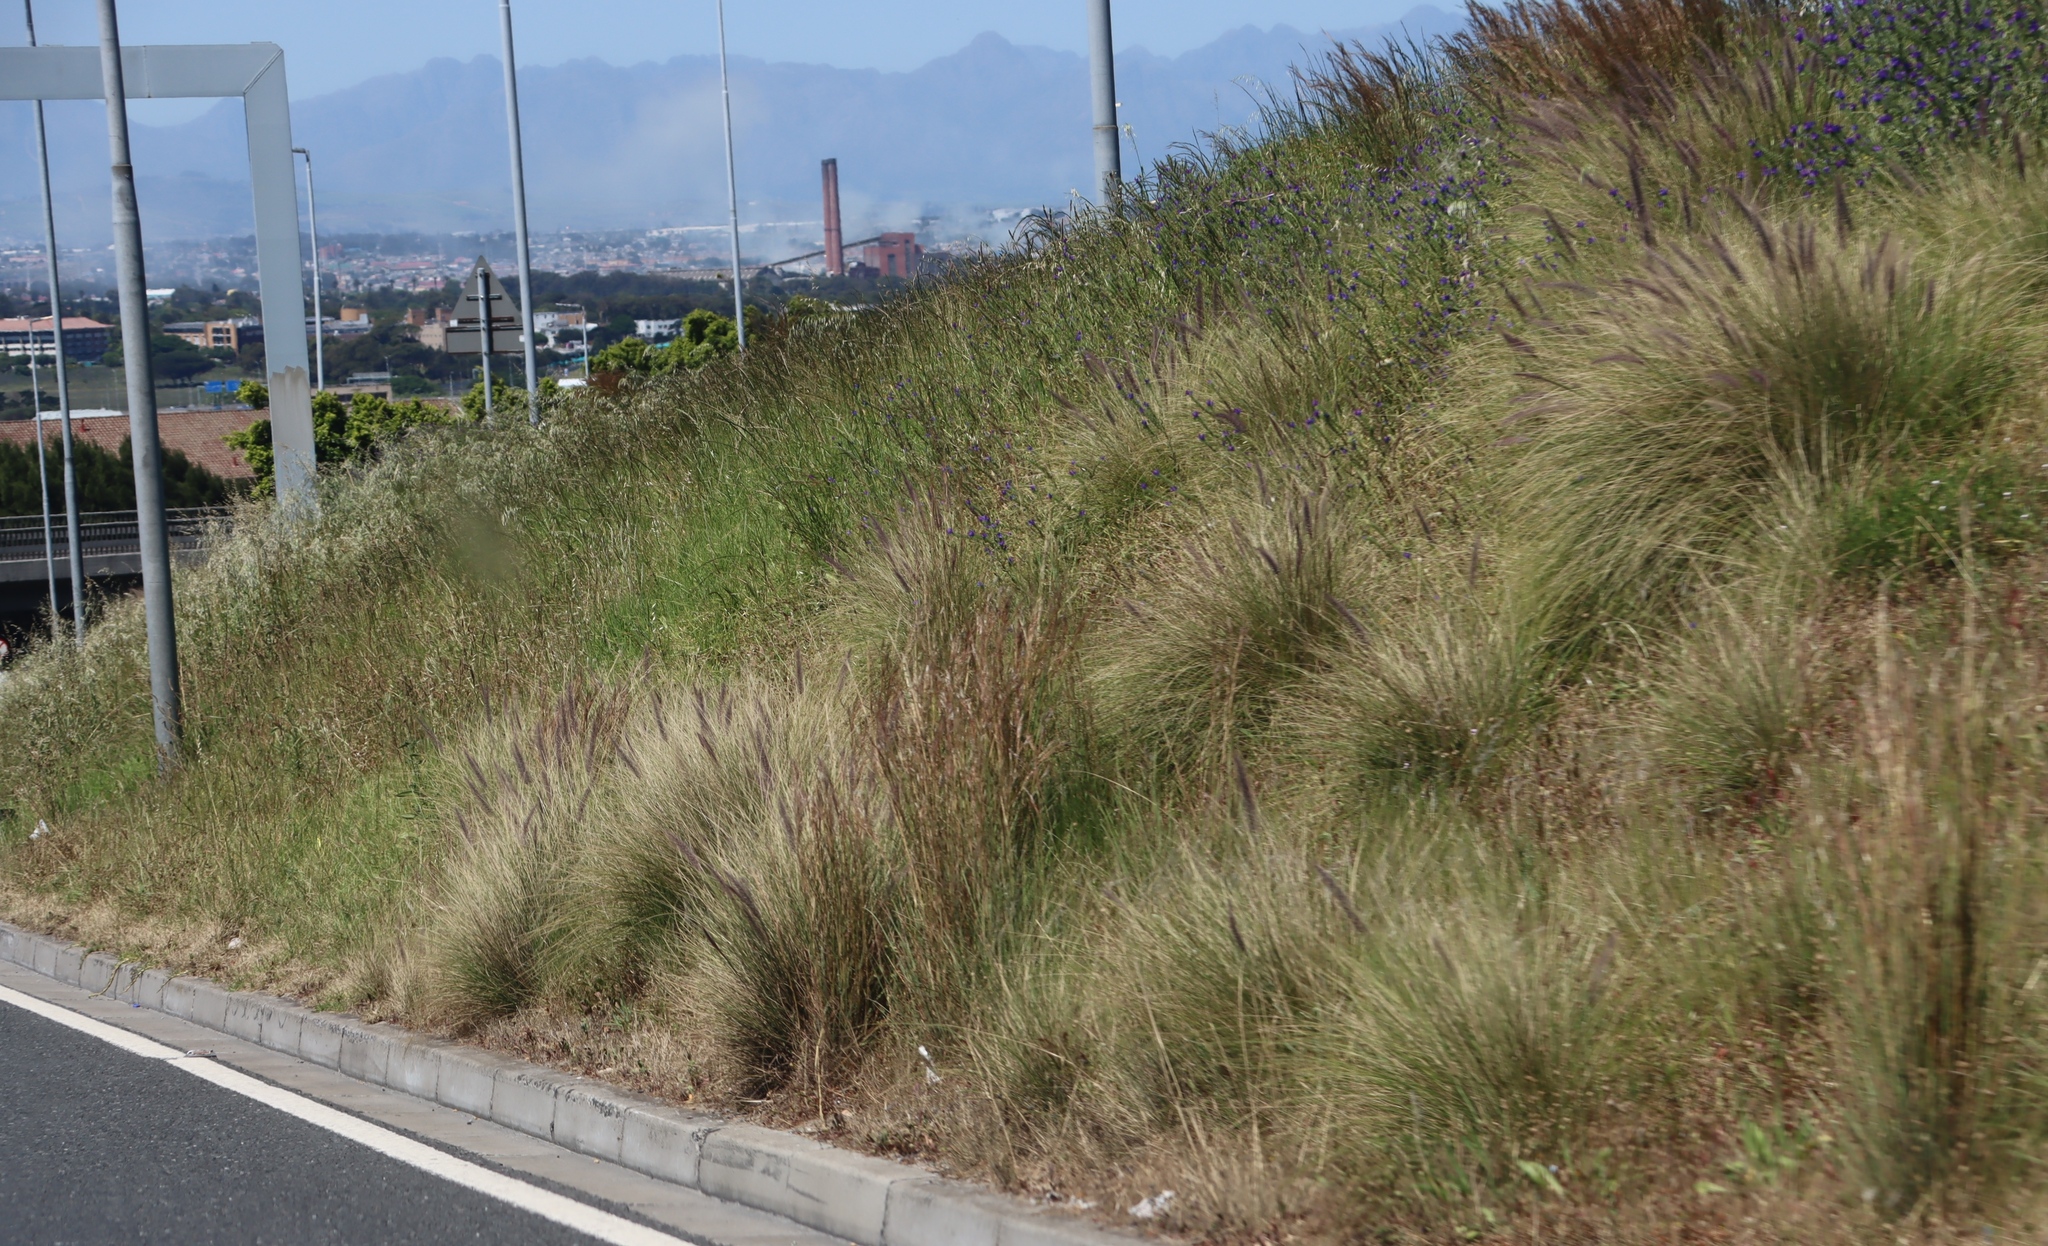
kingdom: Plantae
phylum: Tracheophyta
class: Liliopsida
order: Poales
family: Poaceae
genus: Cenchrus
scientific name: Cenchrus setaceus
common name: Crimson fountaingrass
